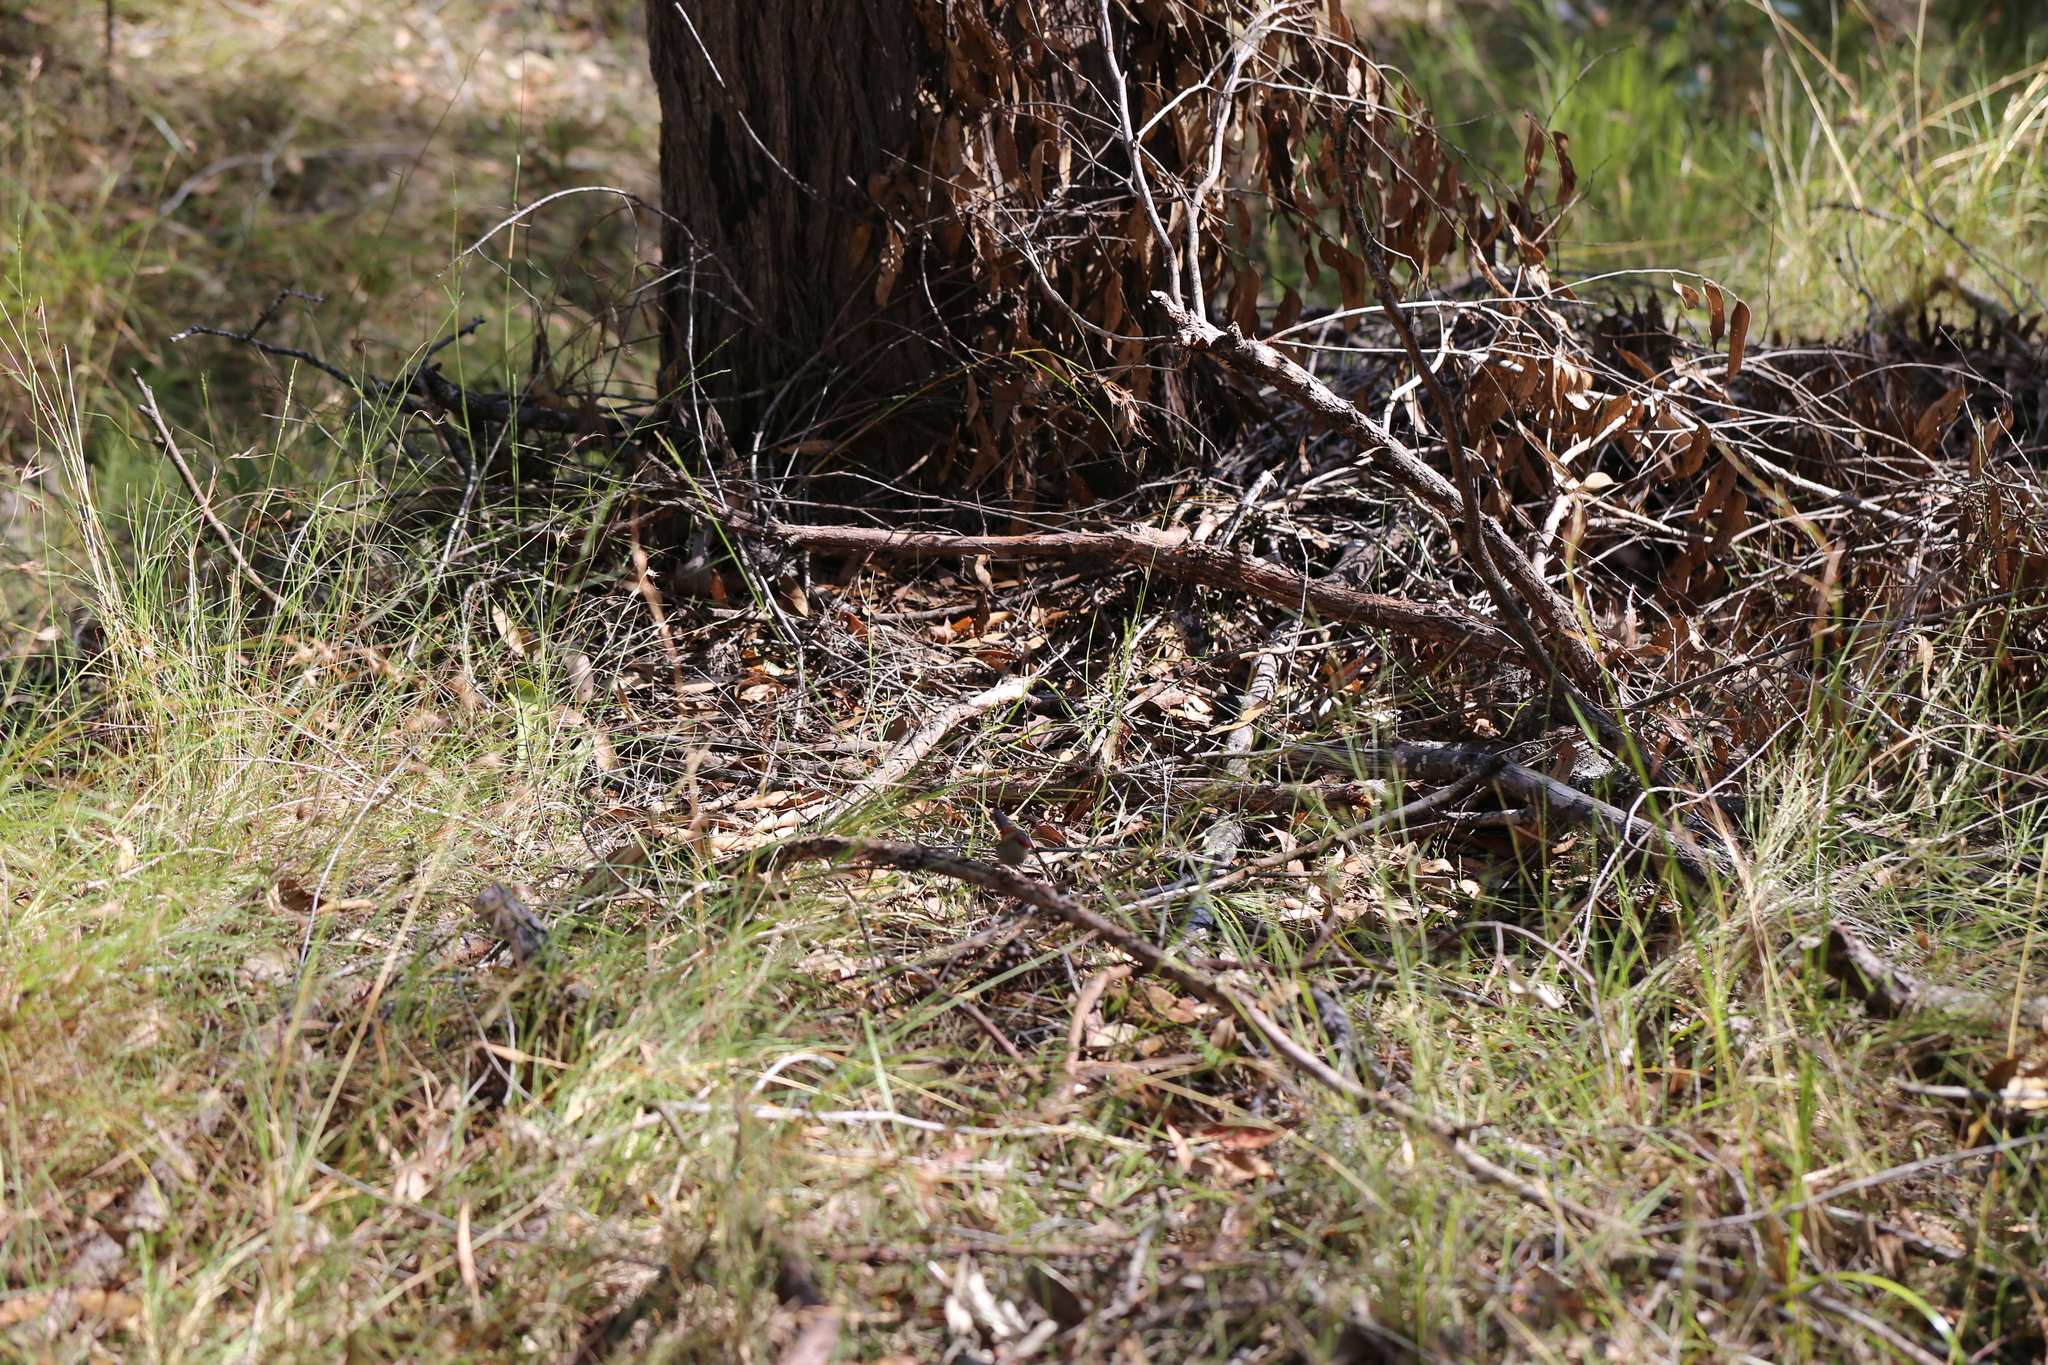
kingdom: Animalia
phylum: Chordata
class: Aves
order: Passeriformes
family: Estrildidae
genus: Neochmia
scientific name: Neochmia temporalis
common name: Red-browed finch
